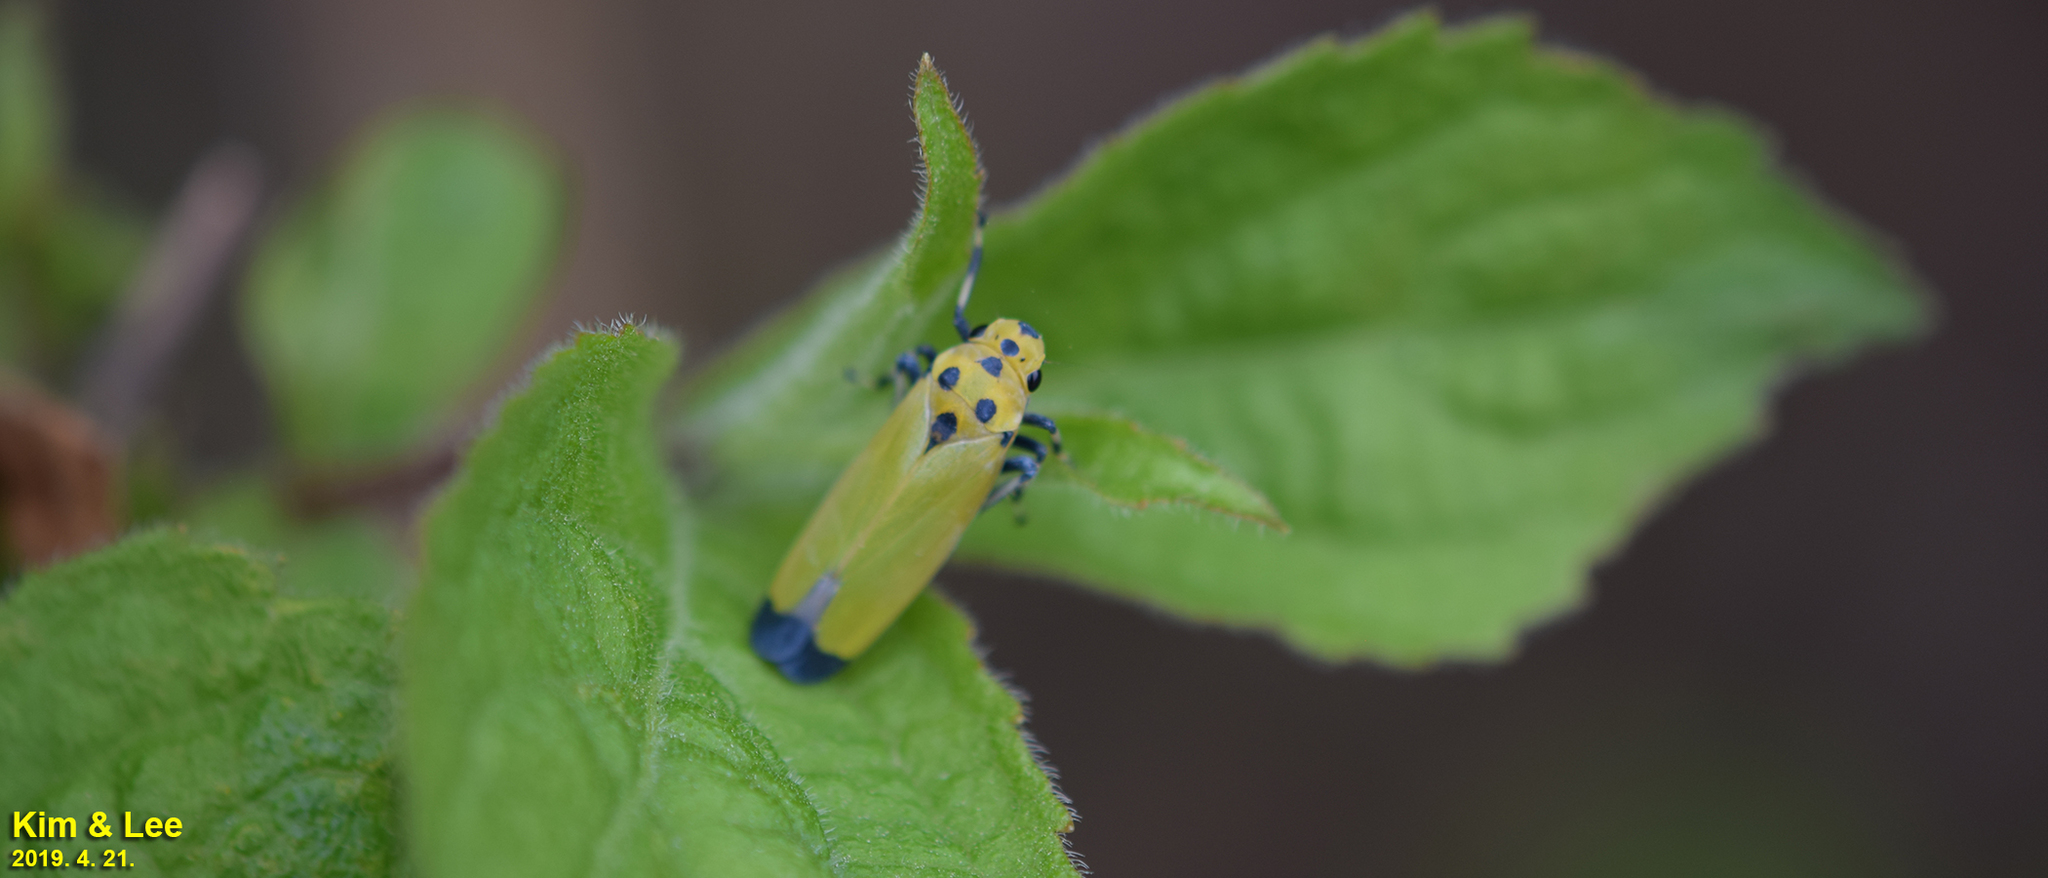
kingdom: Animalia
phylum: Arthropoda
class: Insecta
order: Hemiptera
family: Cicadellidae
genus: Bothrogonia
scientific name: Bothrogonia ferruginea
